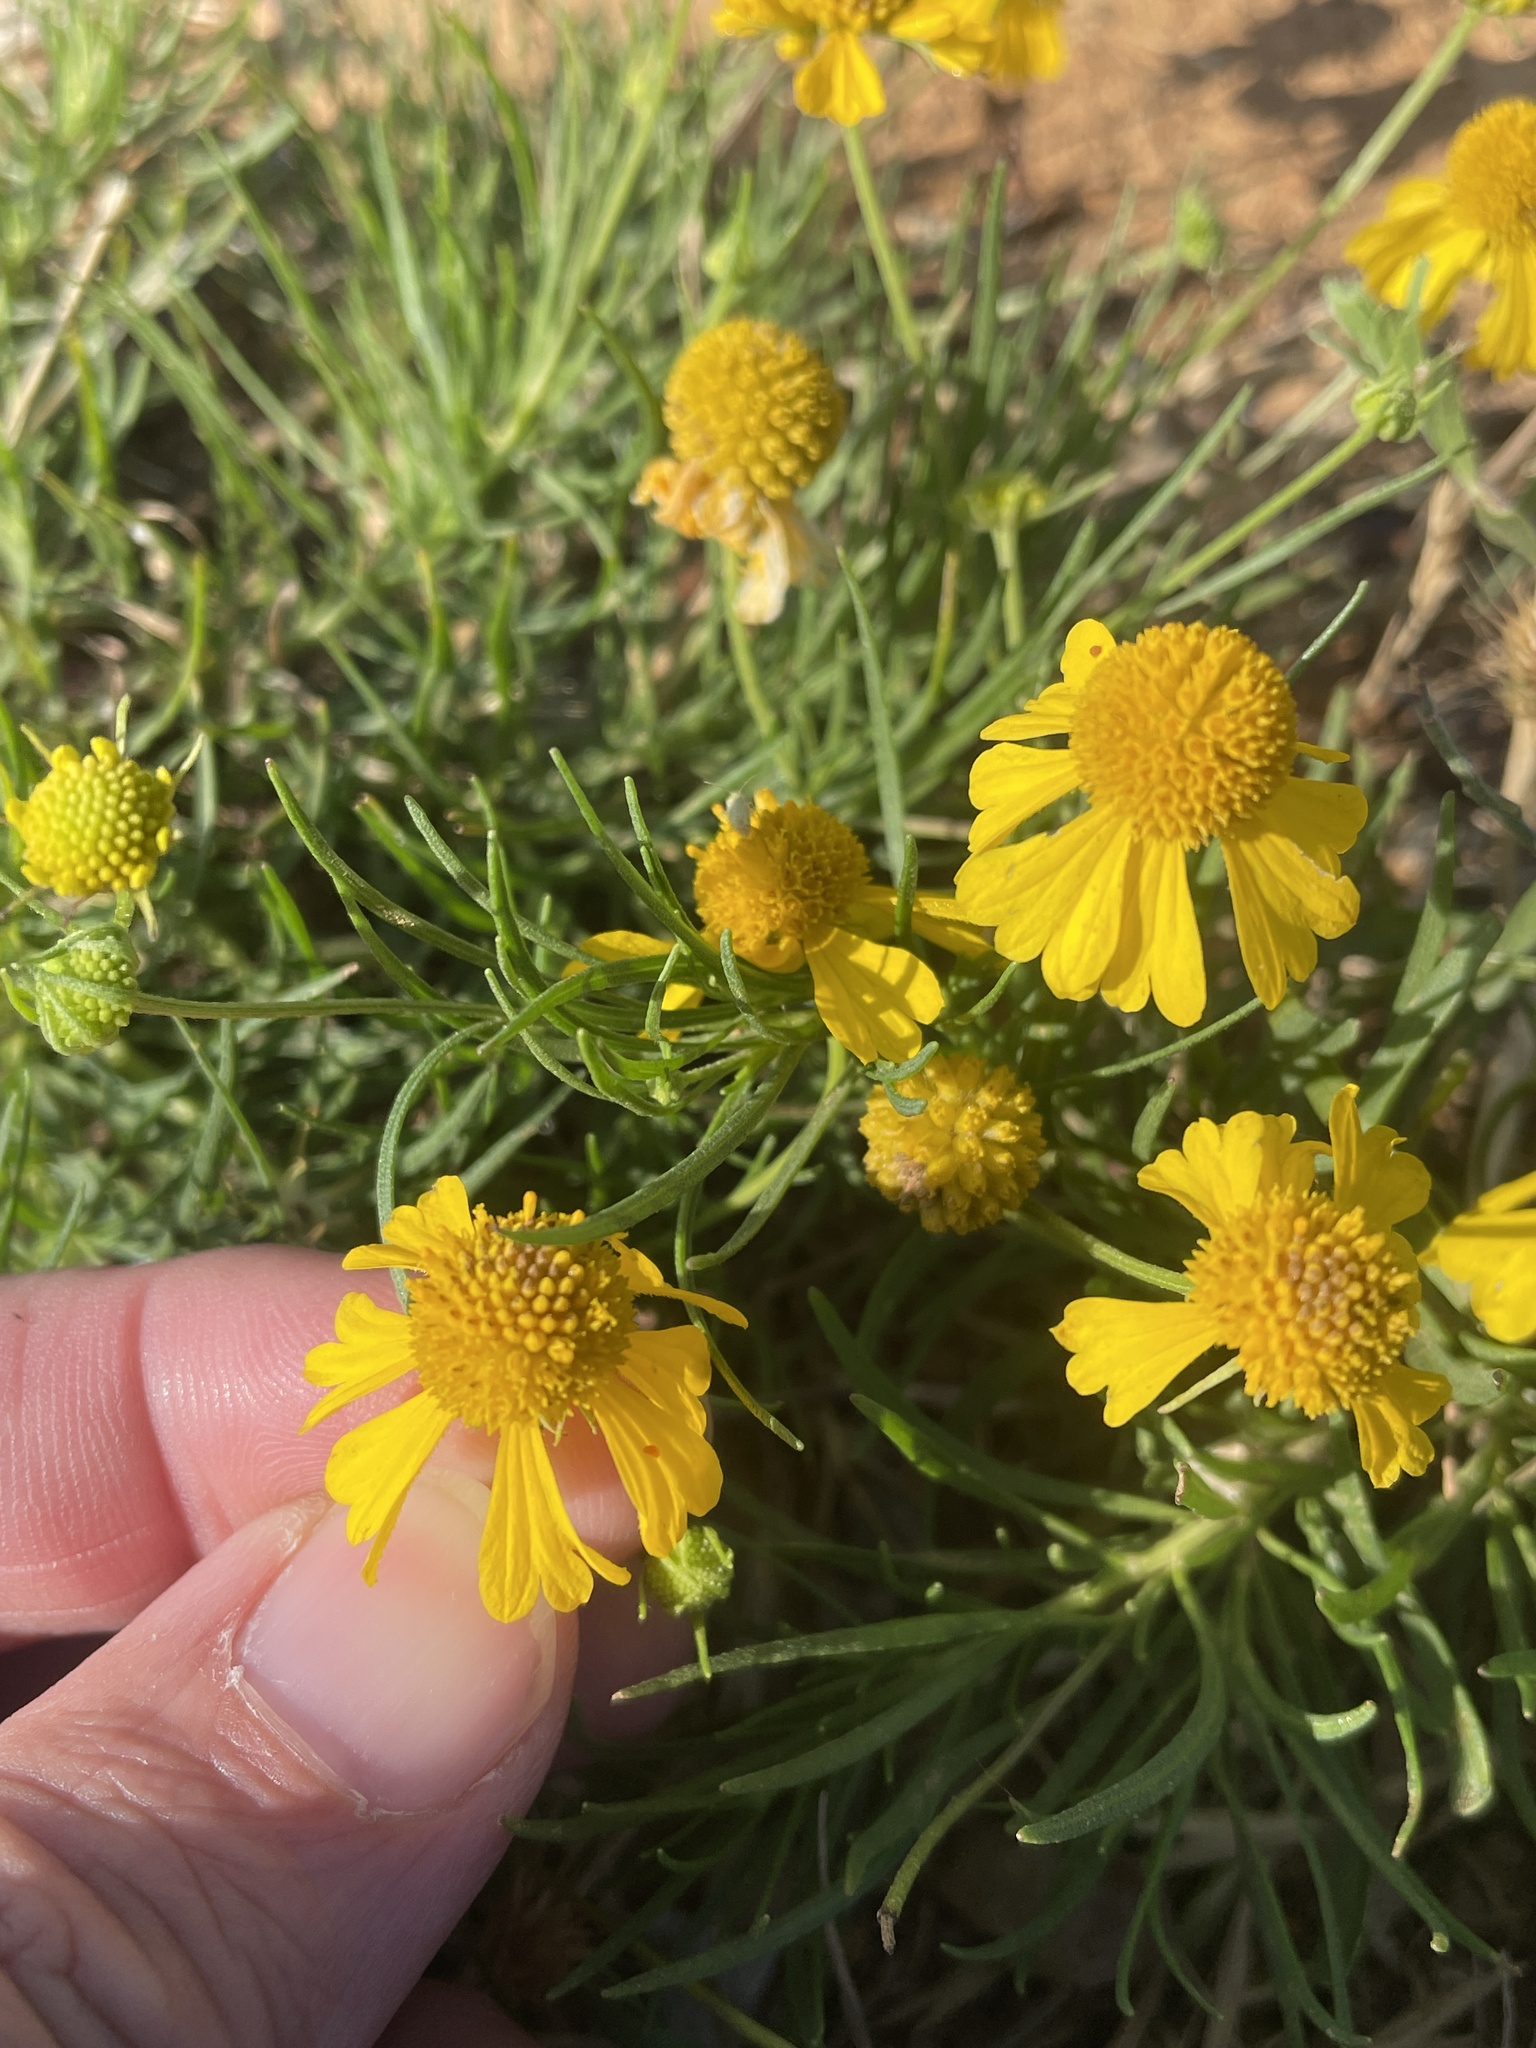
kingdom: Plantae
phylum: Tracheophyta
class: Magnoliopsida
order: Asterales
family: Asteraceae
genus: Helenium
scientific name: Helenium amarum
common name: Bitter sneezeweed
